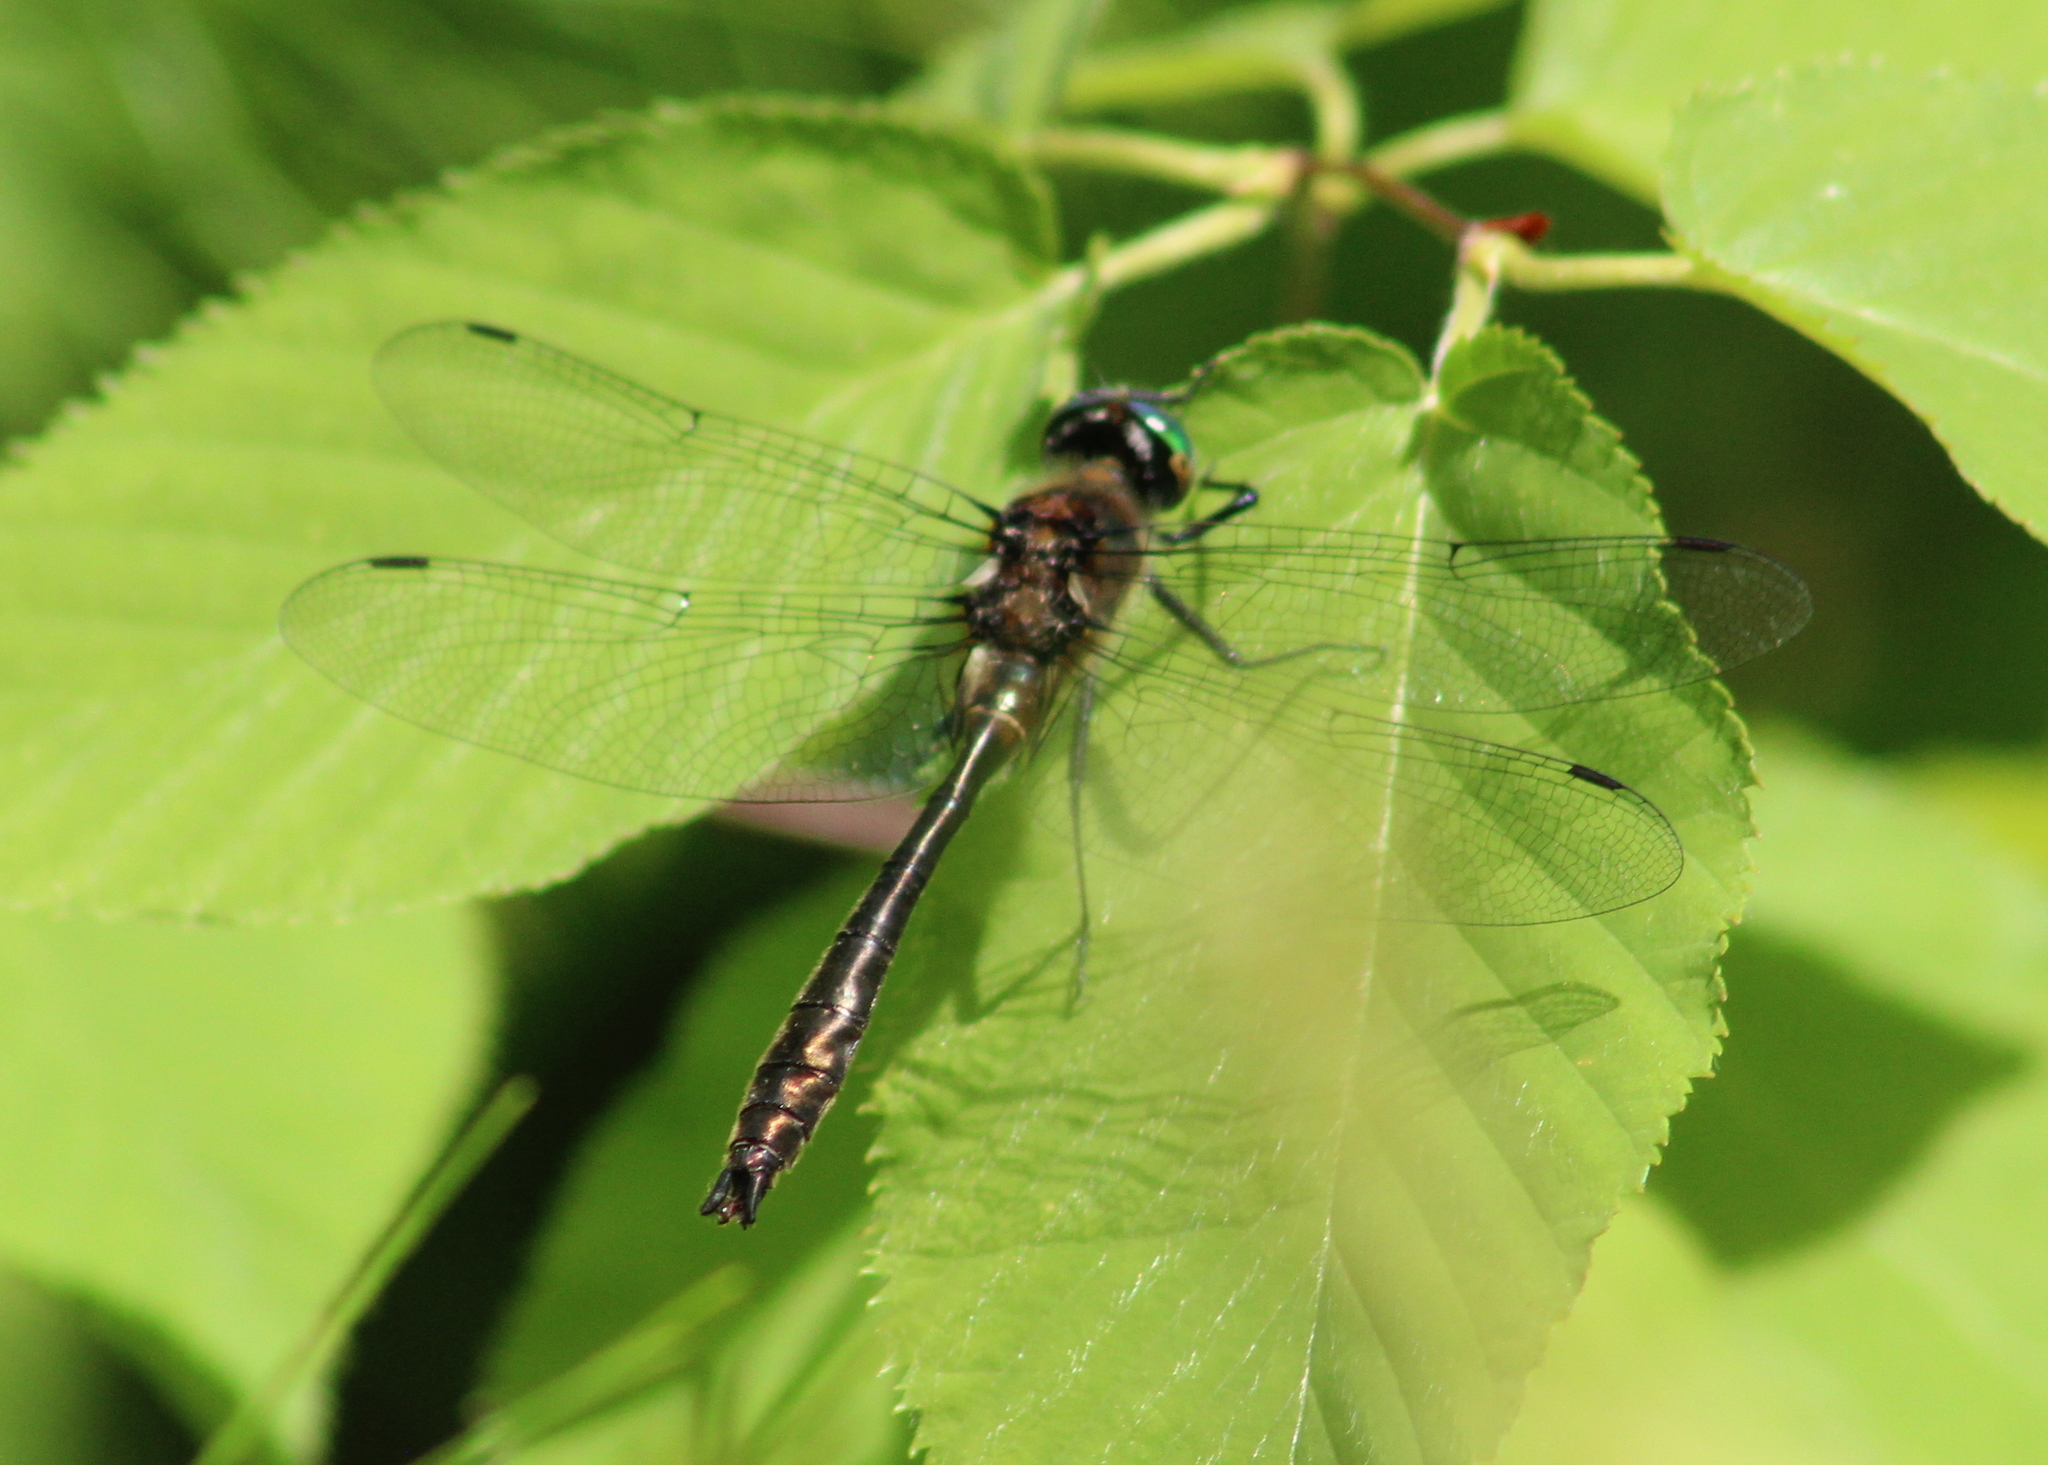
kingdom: Animalia
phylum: Arthropoda
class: Insecta
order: Odonata
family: Corduliidae
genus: Cordulia
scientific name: Cordulia shurtleffii
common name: American emerald
